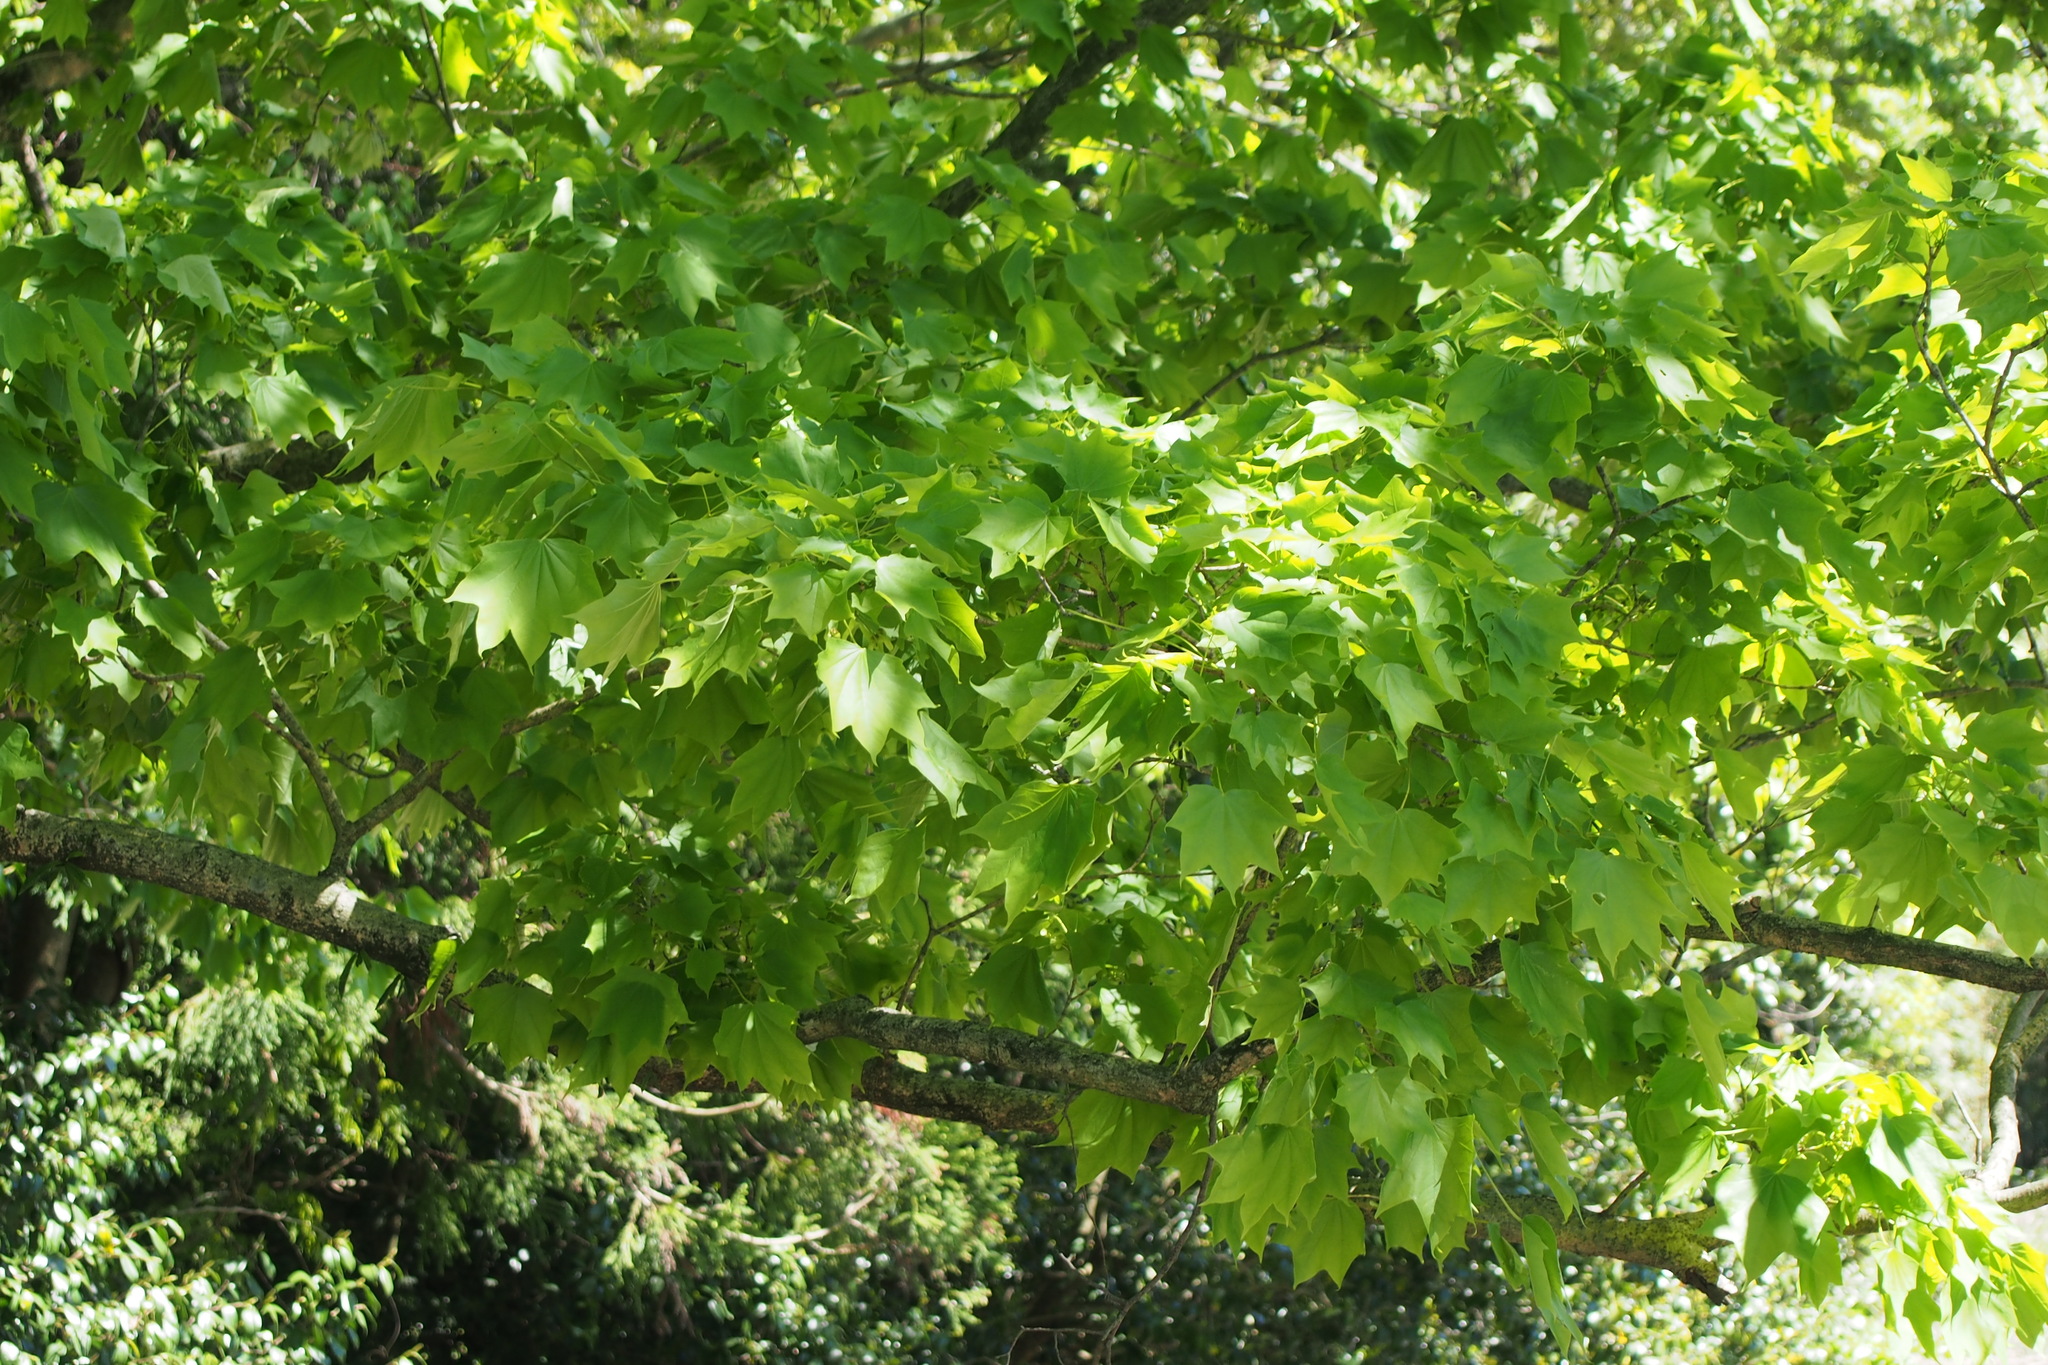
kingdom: Plantae
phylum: Tracheophyta
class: Magnoliopsida
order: Apiales
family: Araliaceae
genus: Kalopanax
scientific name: Kalopanax septemlobus
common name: Castor aralia
